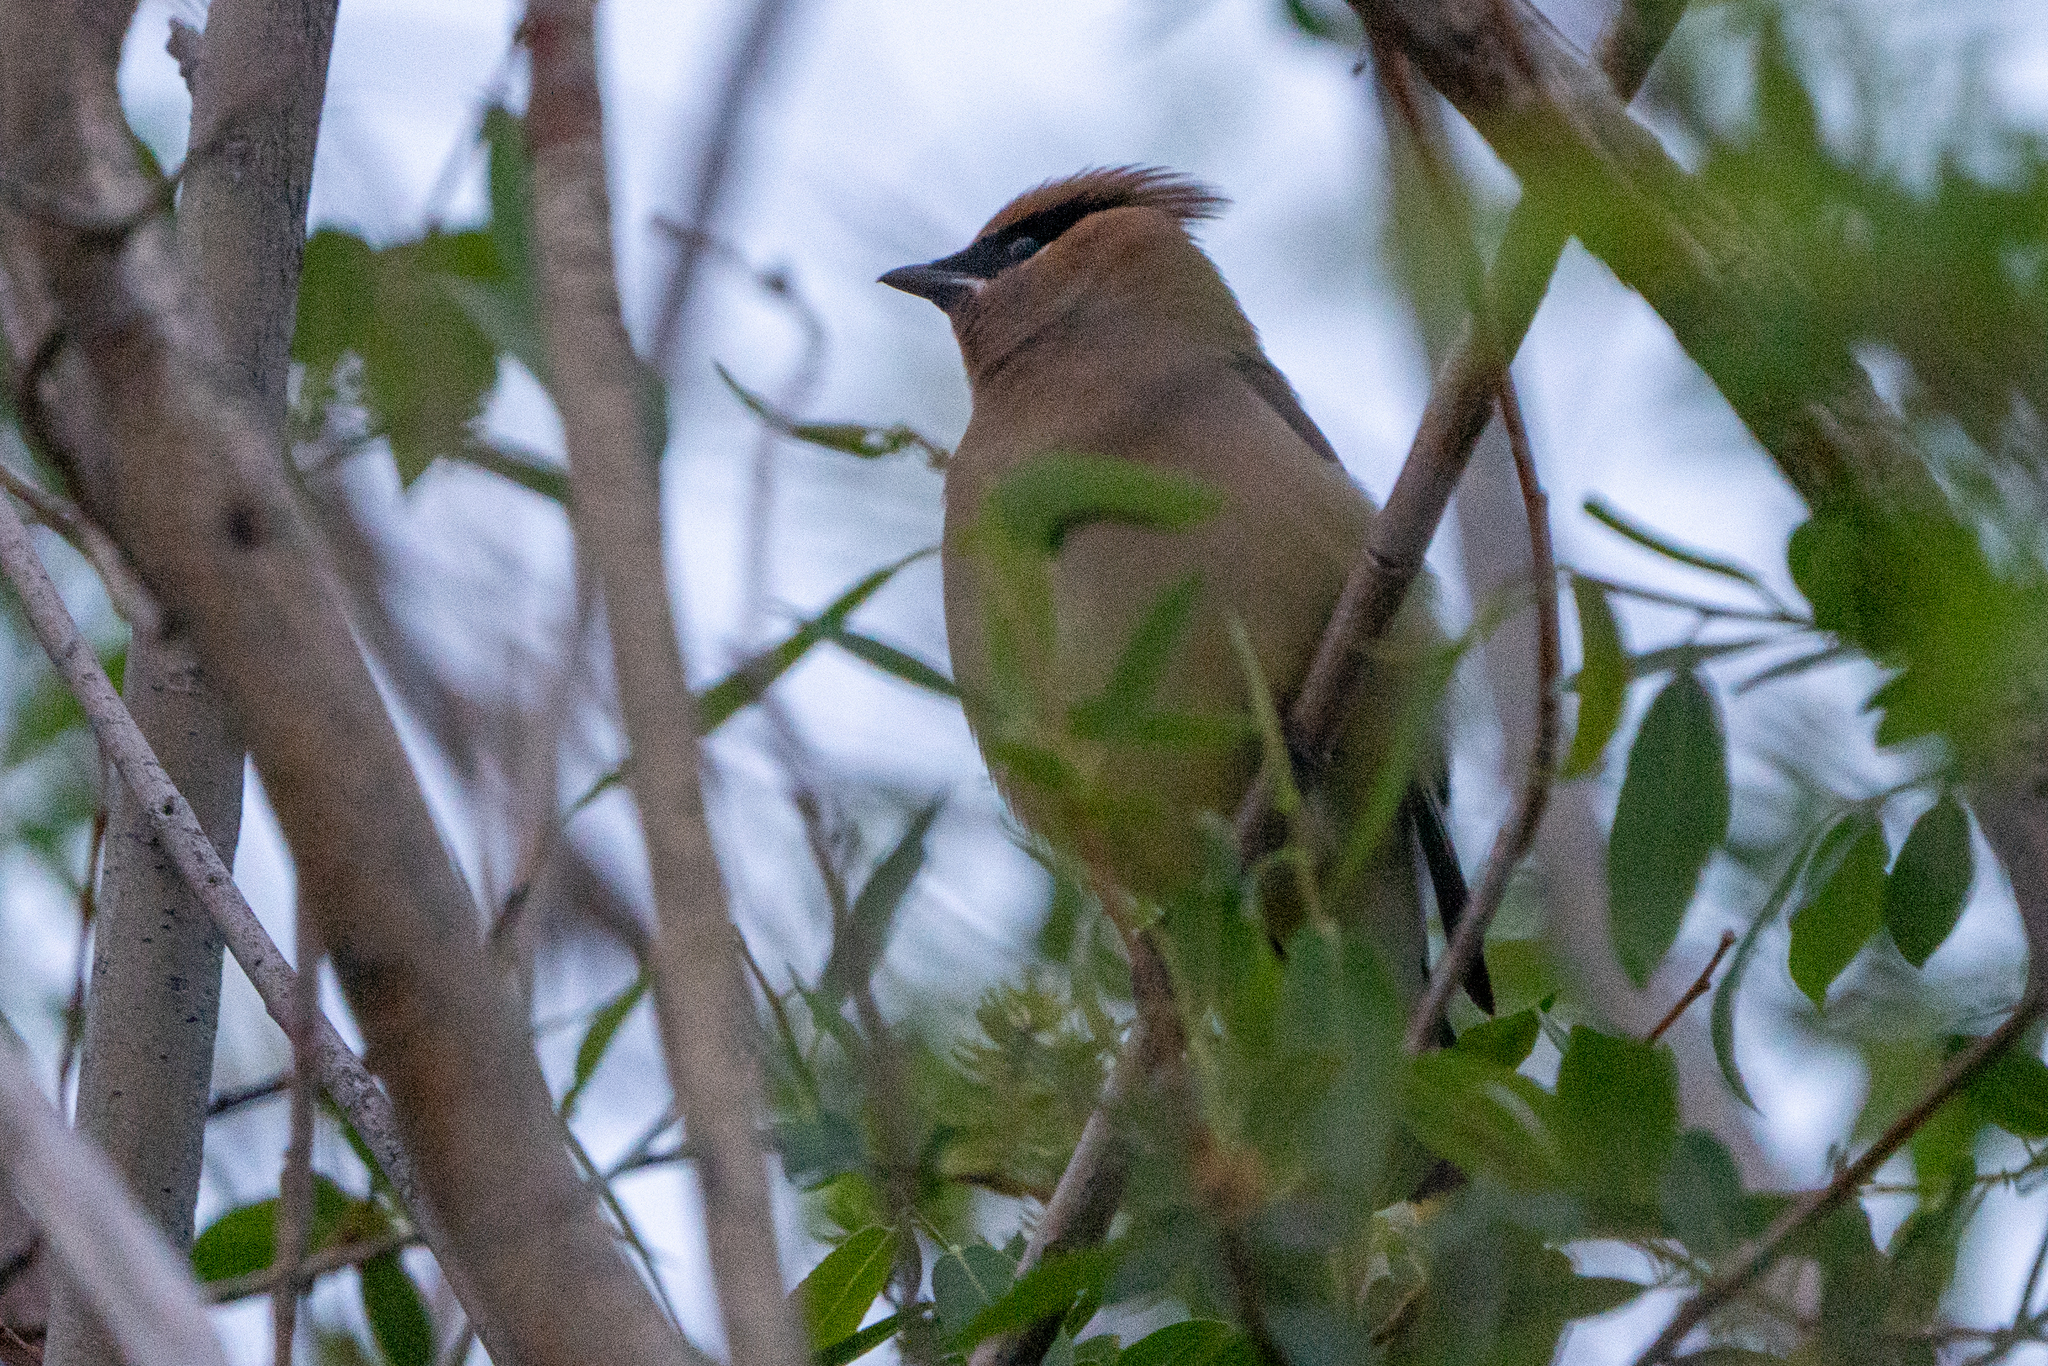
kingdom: Animalia
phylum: Chordata
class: Aves
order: Passeriformes
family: Bombycillidae
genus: Bombycilla
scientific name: Bombycilla cedrorum
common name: Cedar waxwing
